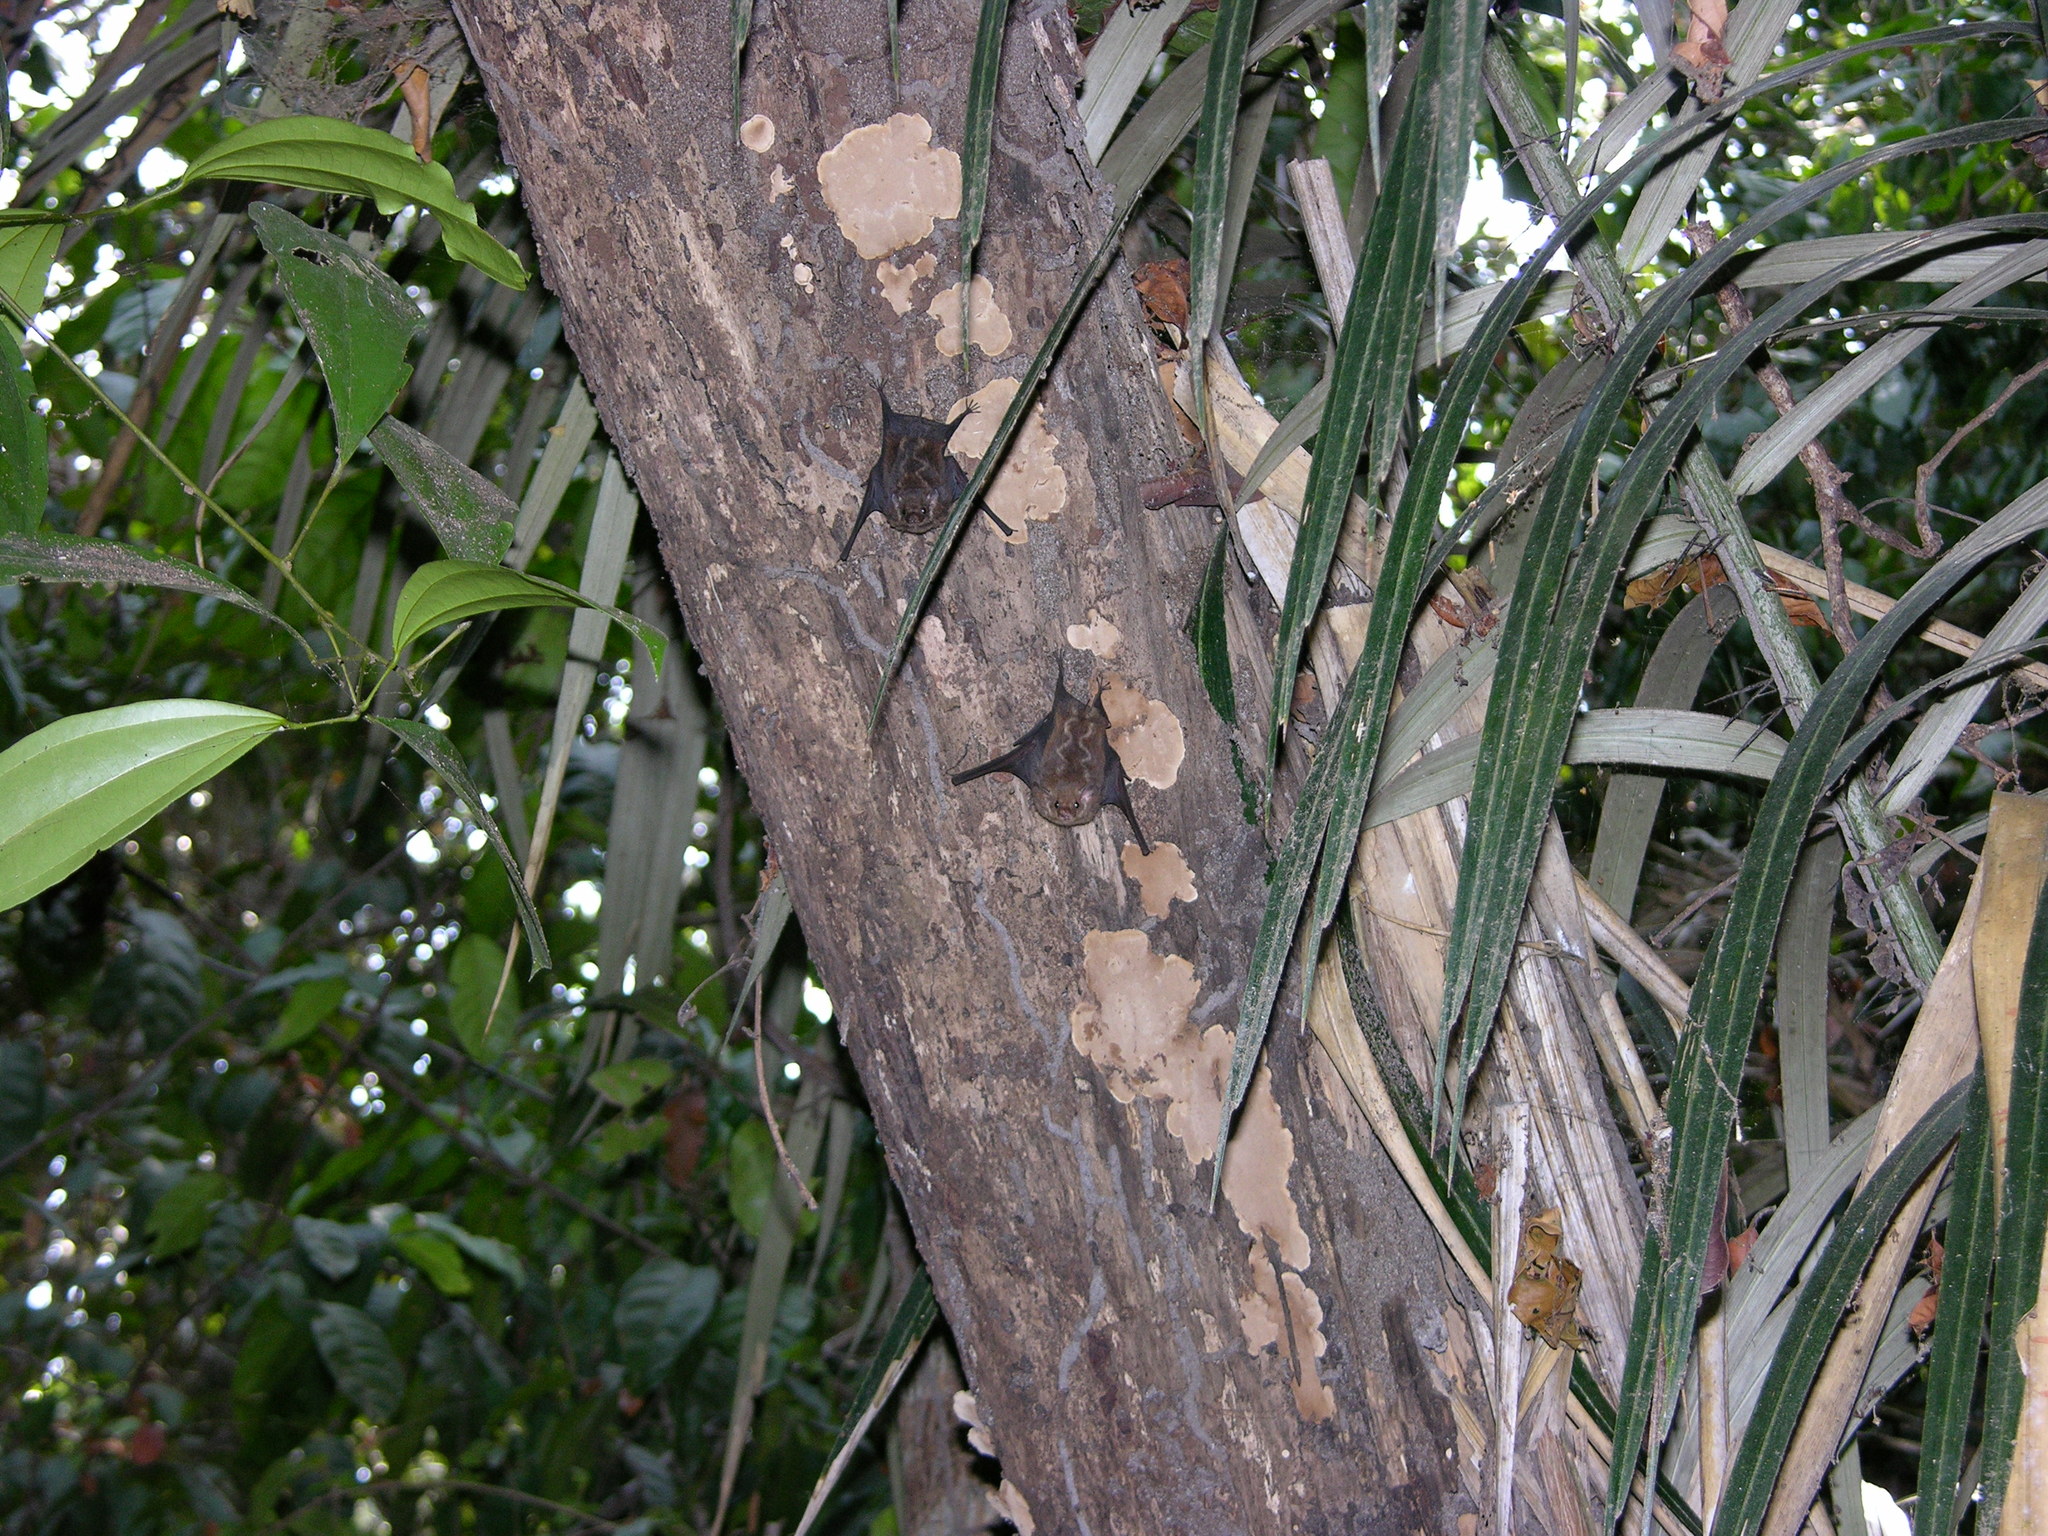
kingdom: Animalia
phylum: Chordata
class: Mammalia
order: Chiroptera
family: Emballonuridae
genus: Saccopteryx
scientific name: Saccopteryx leptura
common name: Lesser sac-winged bat
